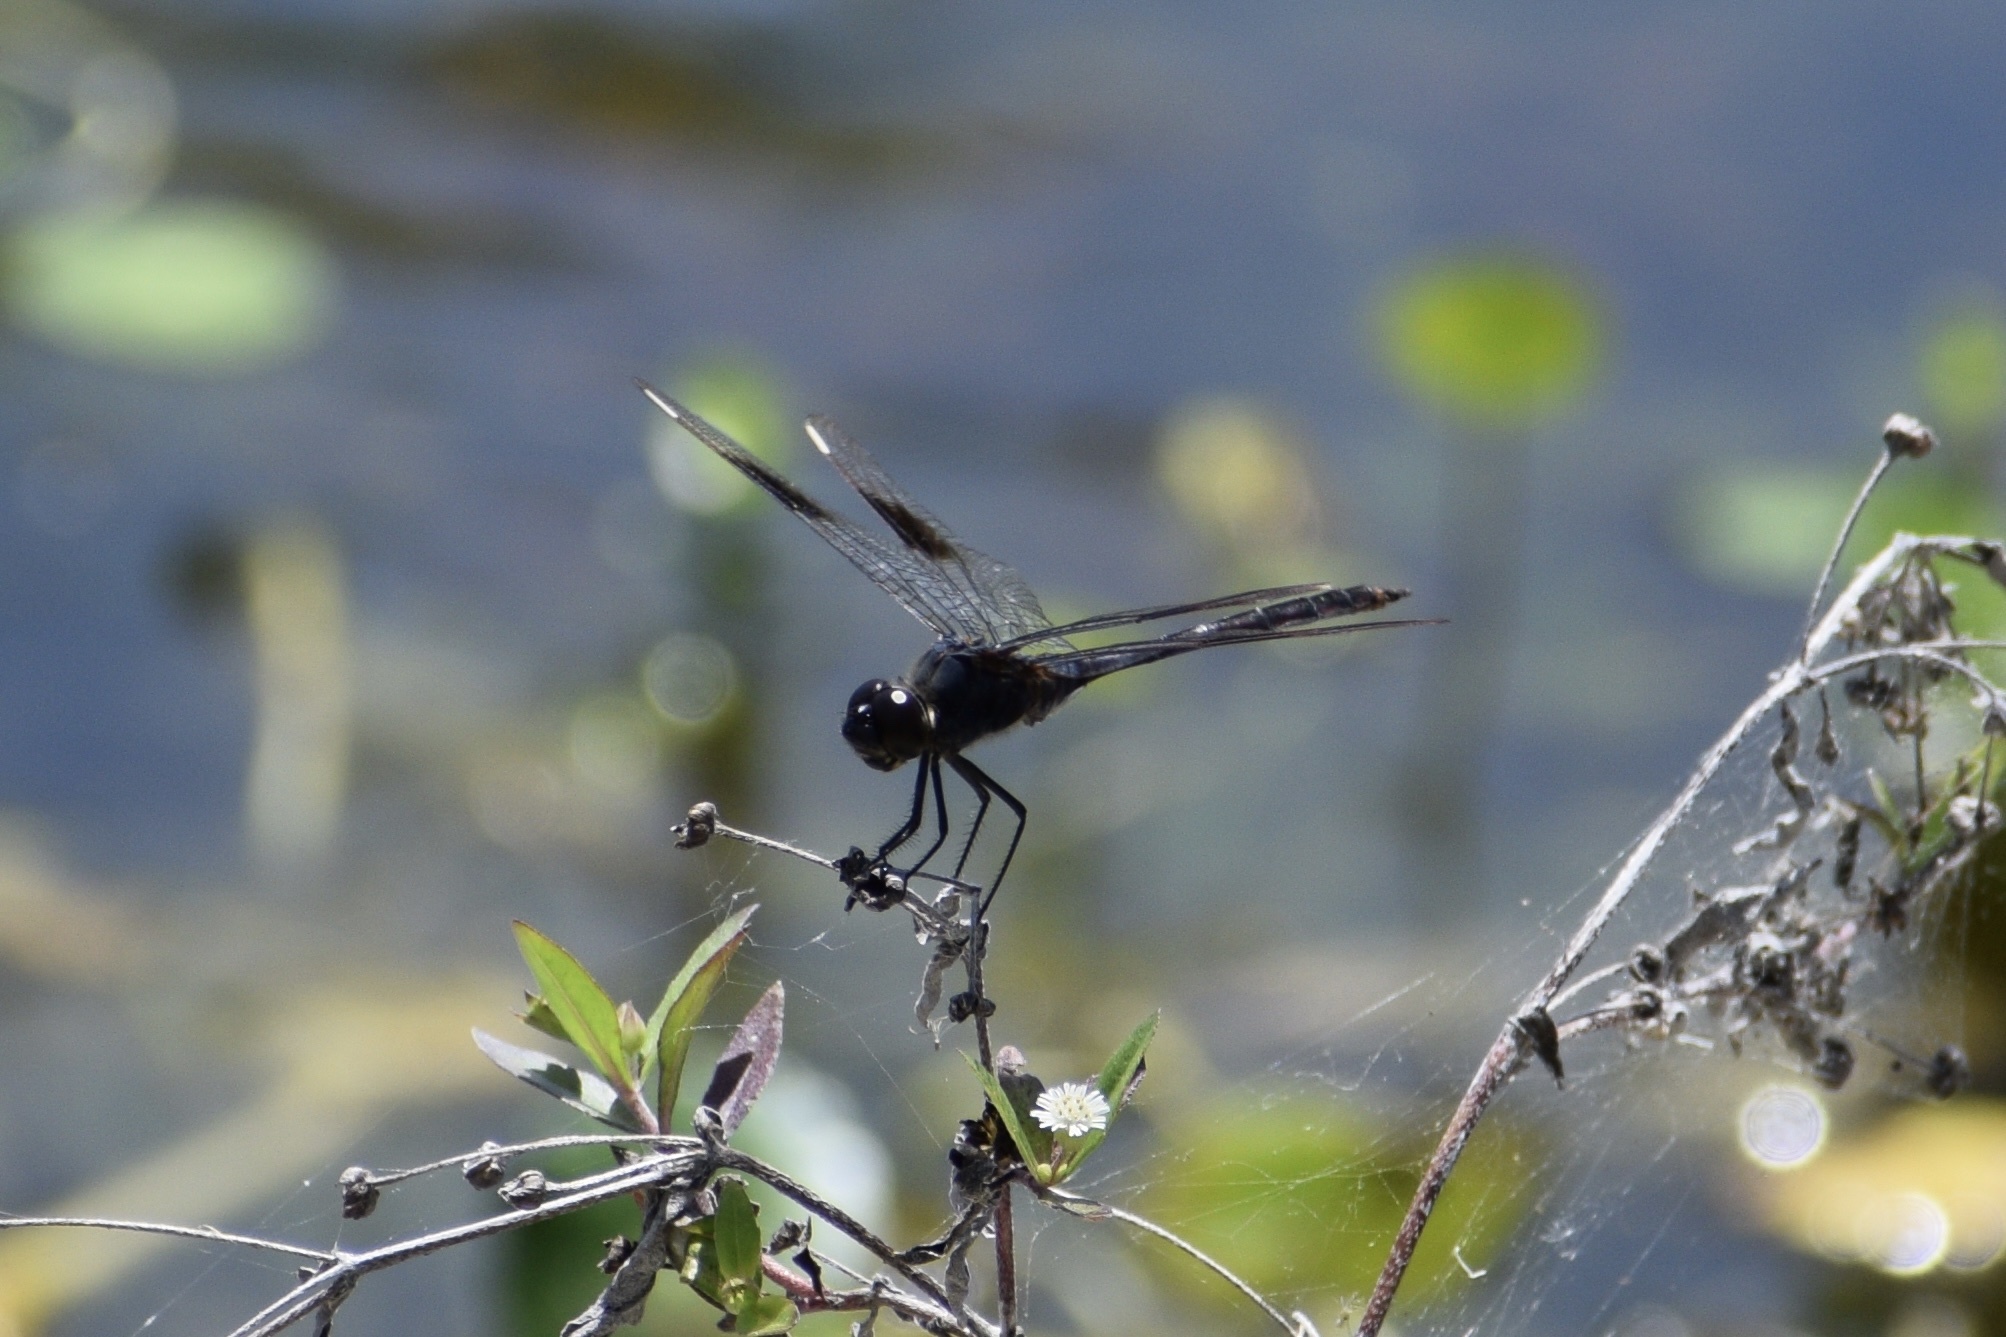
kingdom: Animalia
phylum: Arthropoda
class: Insecta
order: Odonata
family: Libellulidae
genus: Brachymesia
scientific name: Brachymesia gravida
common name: Four-spotted pennant
